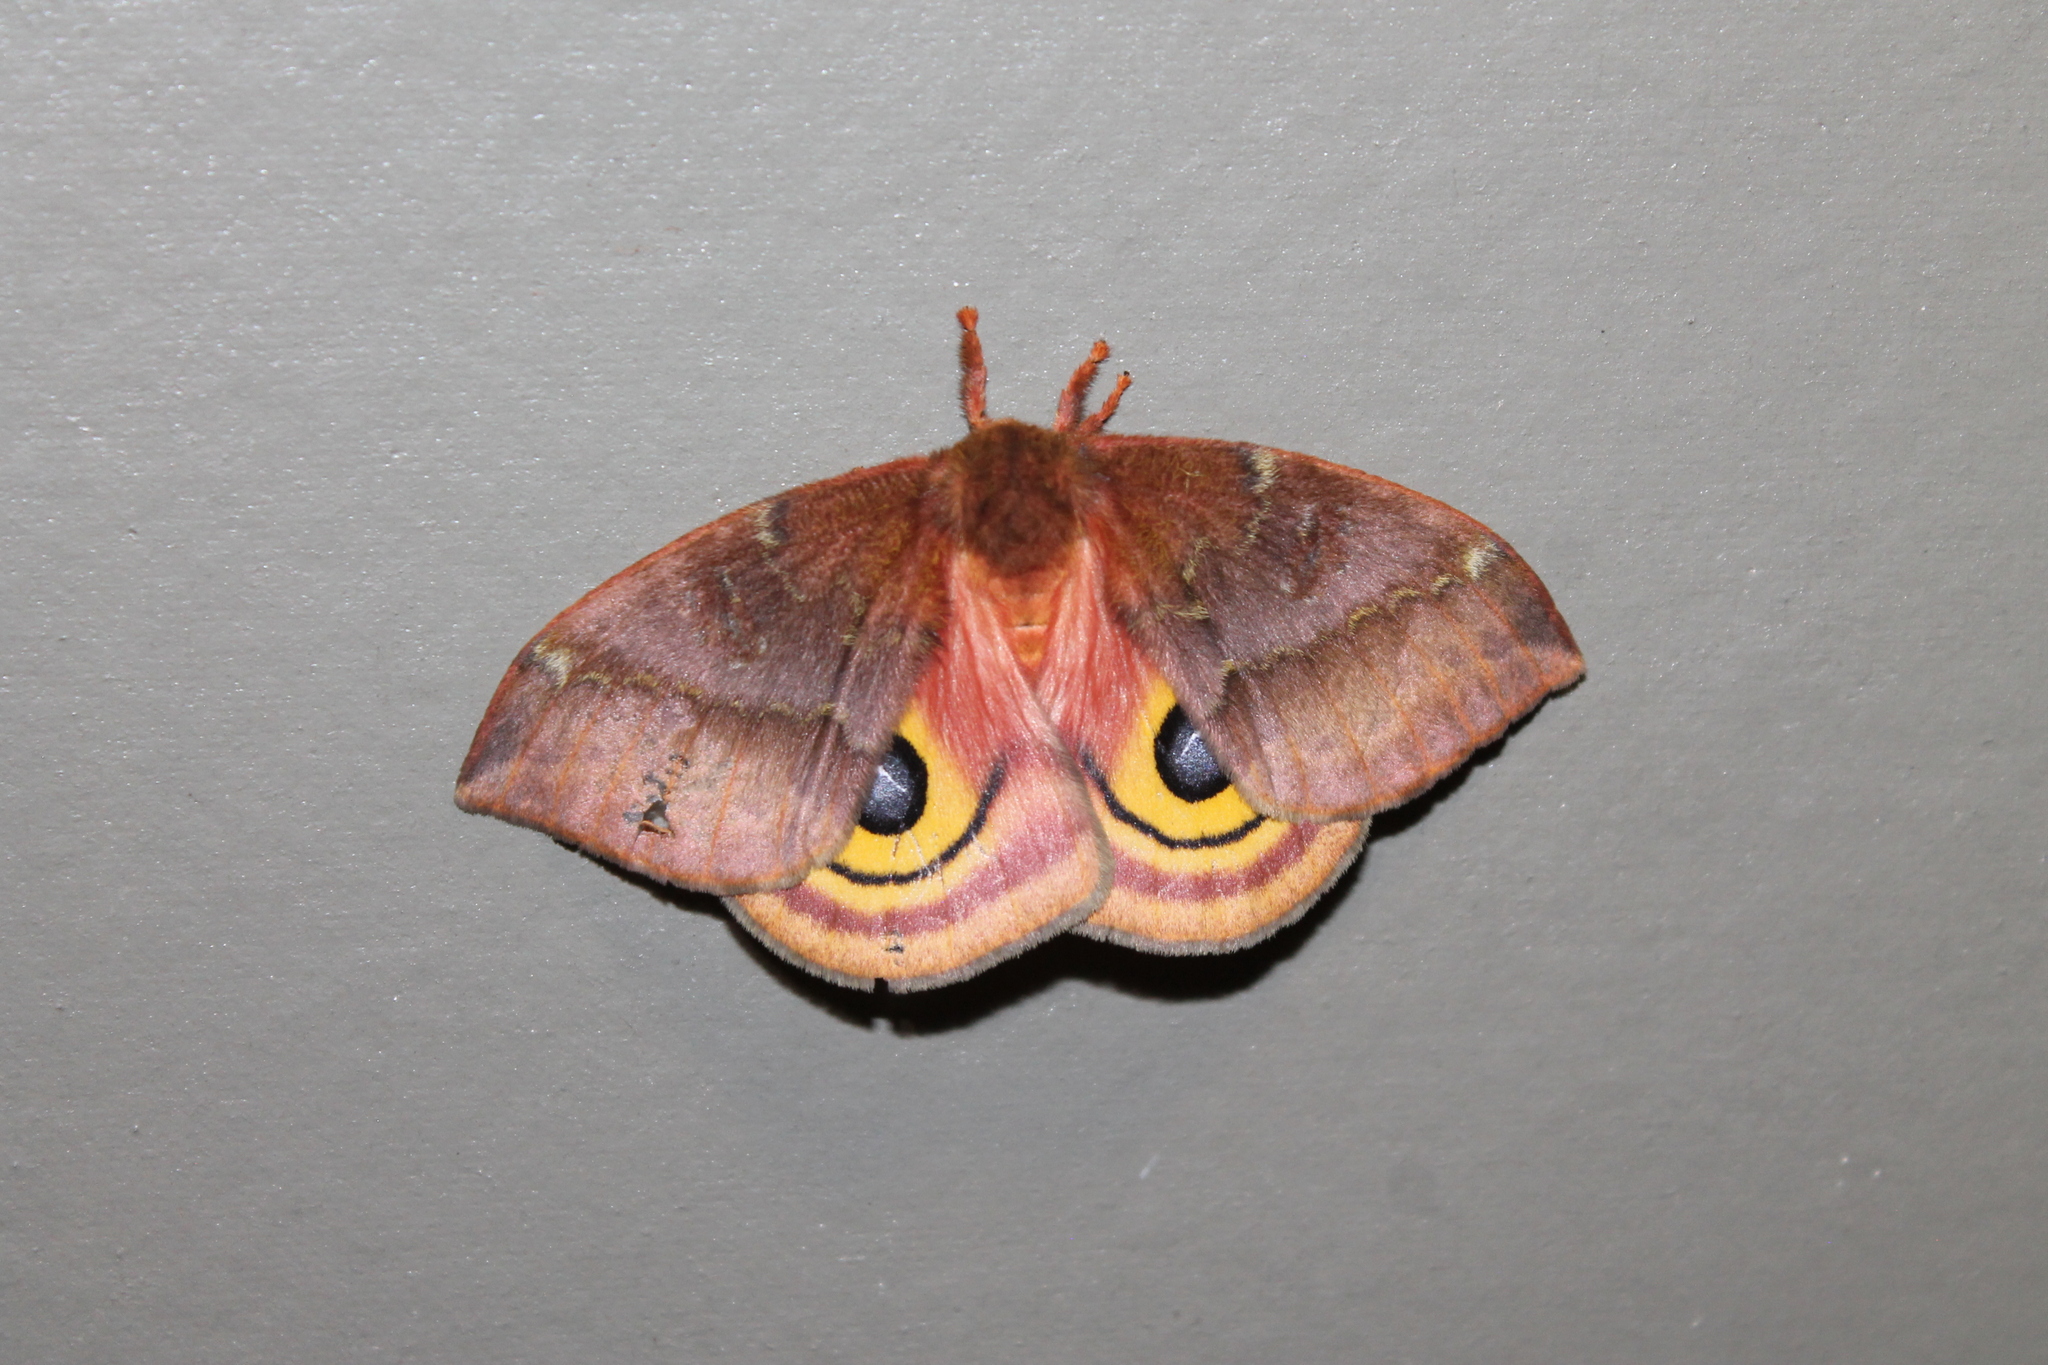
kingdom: Animalia
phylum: Arthropoda
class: Insecta
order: Lepidoptera
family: Saturniidae
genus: Automeris
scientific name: Automeris io
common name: Io moth
